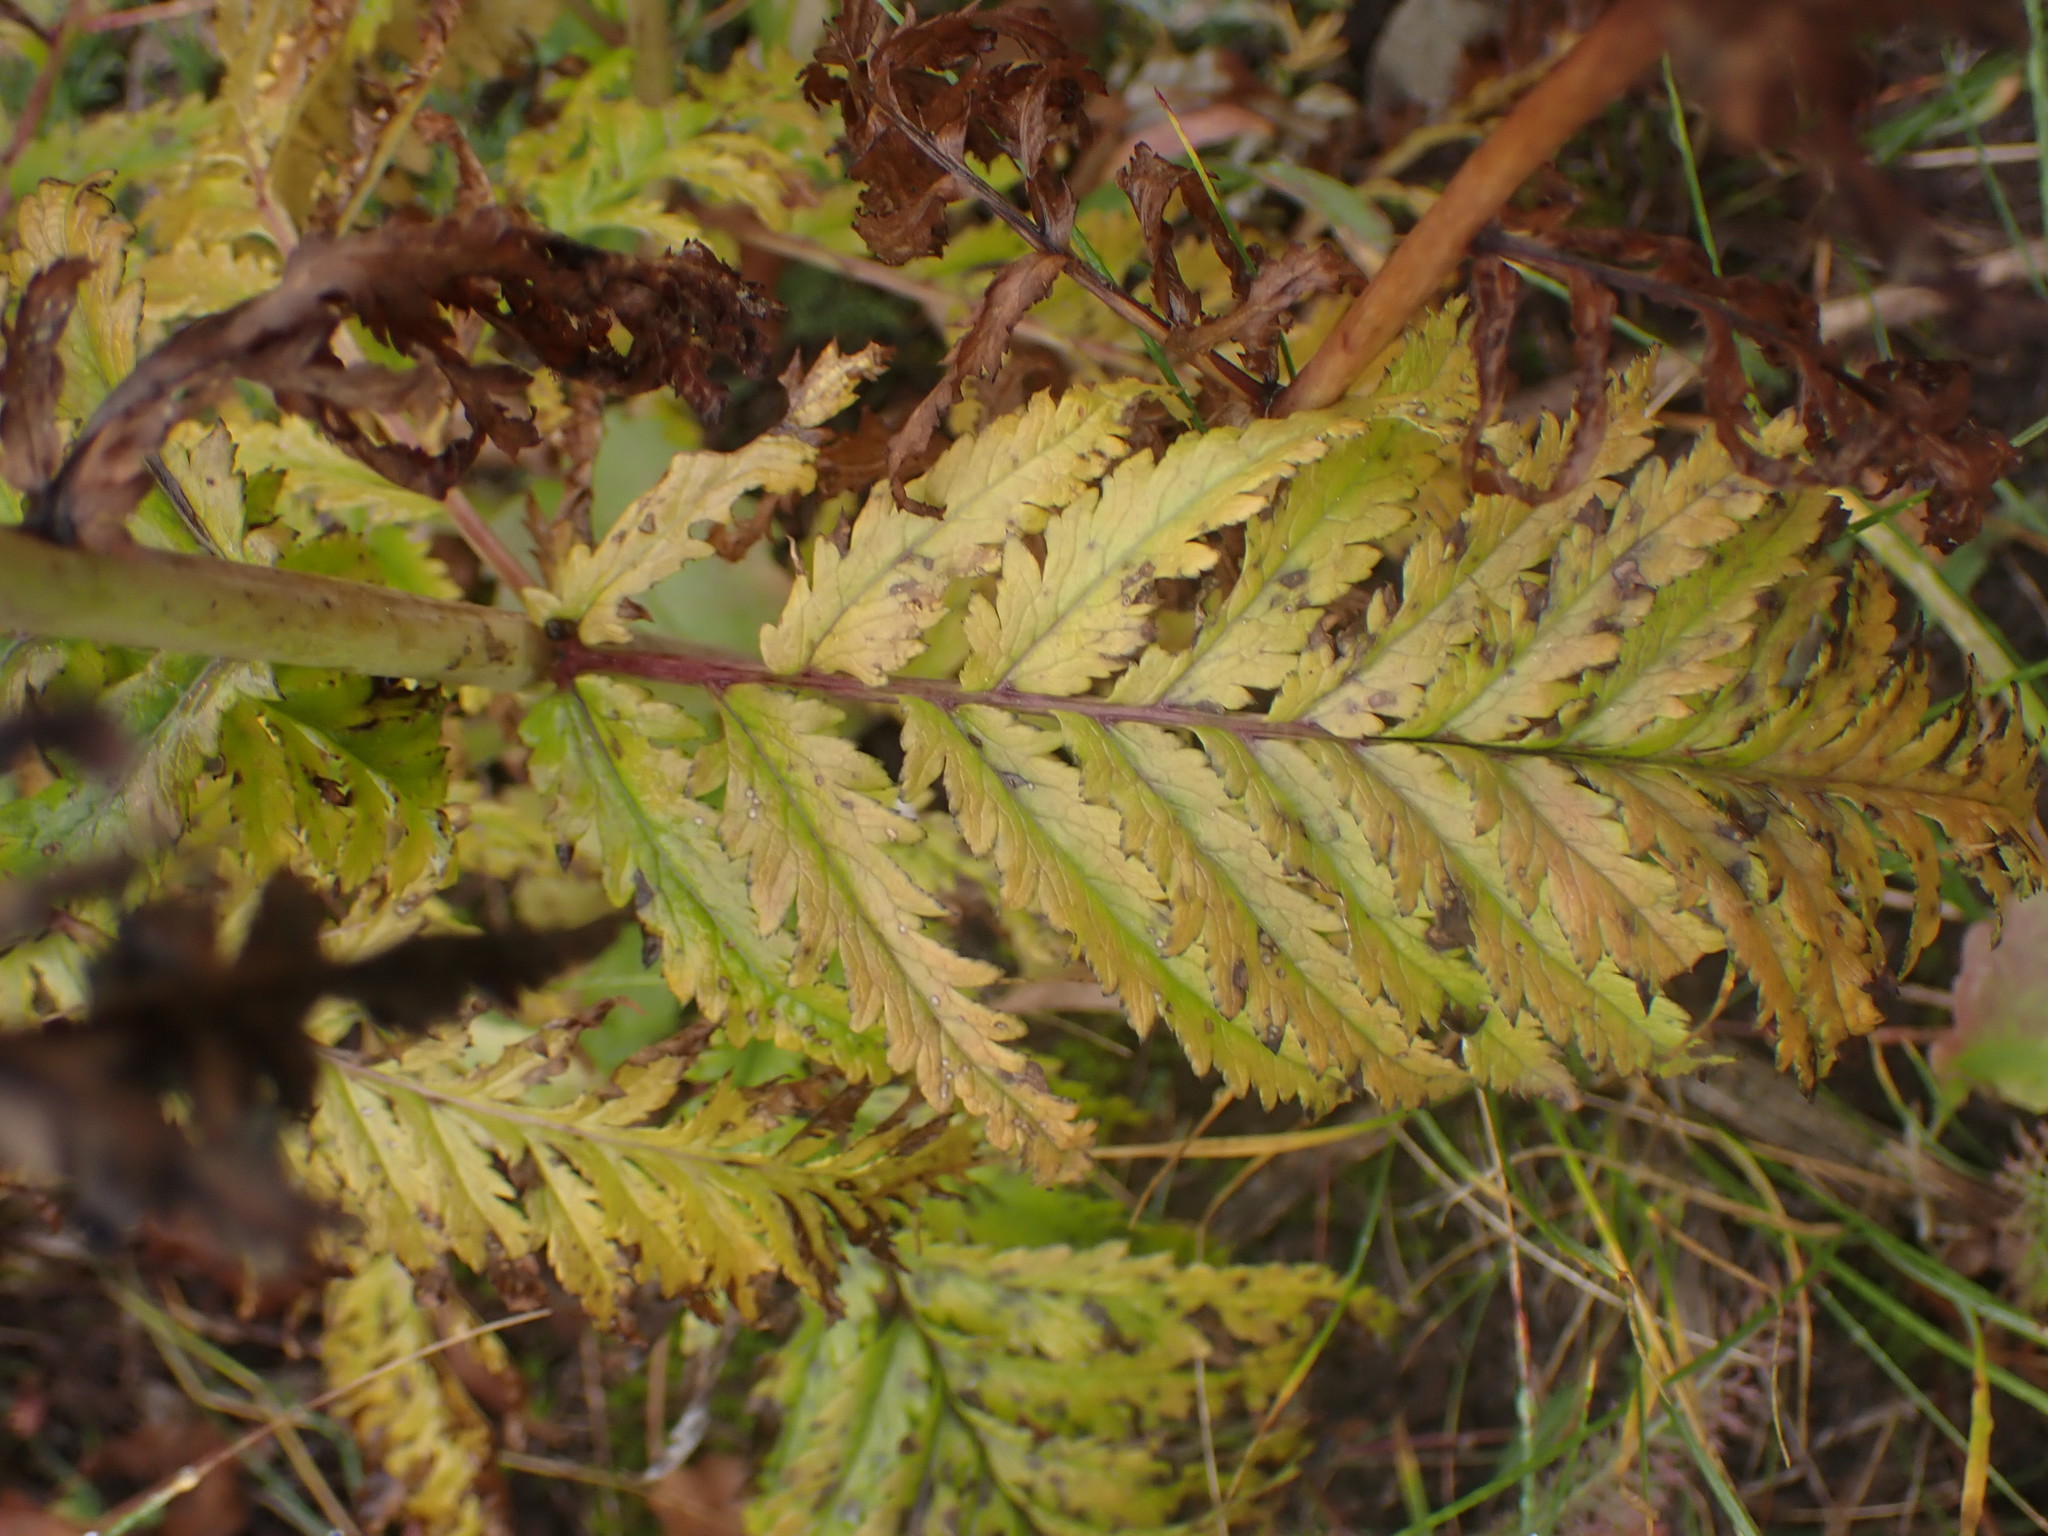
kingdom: Plantae
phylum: Tracheophyta
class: Magnoliopsida
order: Lamiales
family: Orobanchaceae
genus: Pedicularis
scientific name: Pedicularis bracteosa
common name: Bracted lousewort
